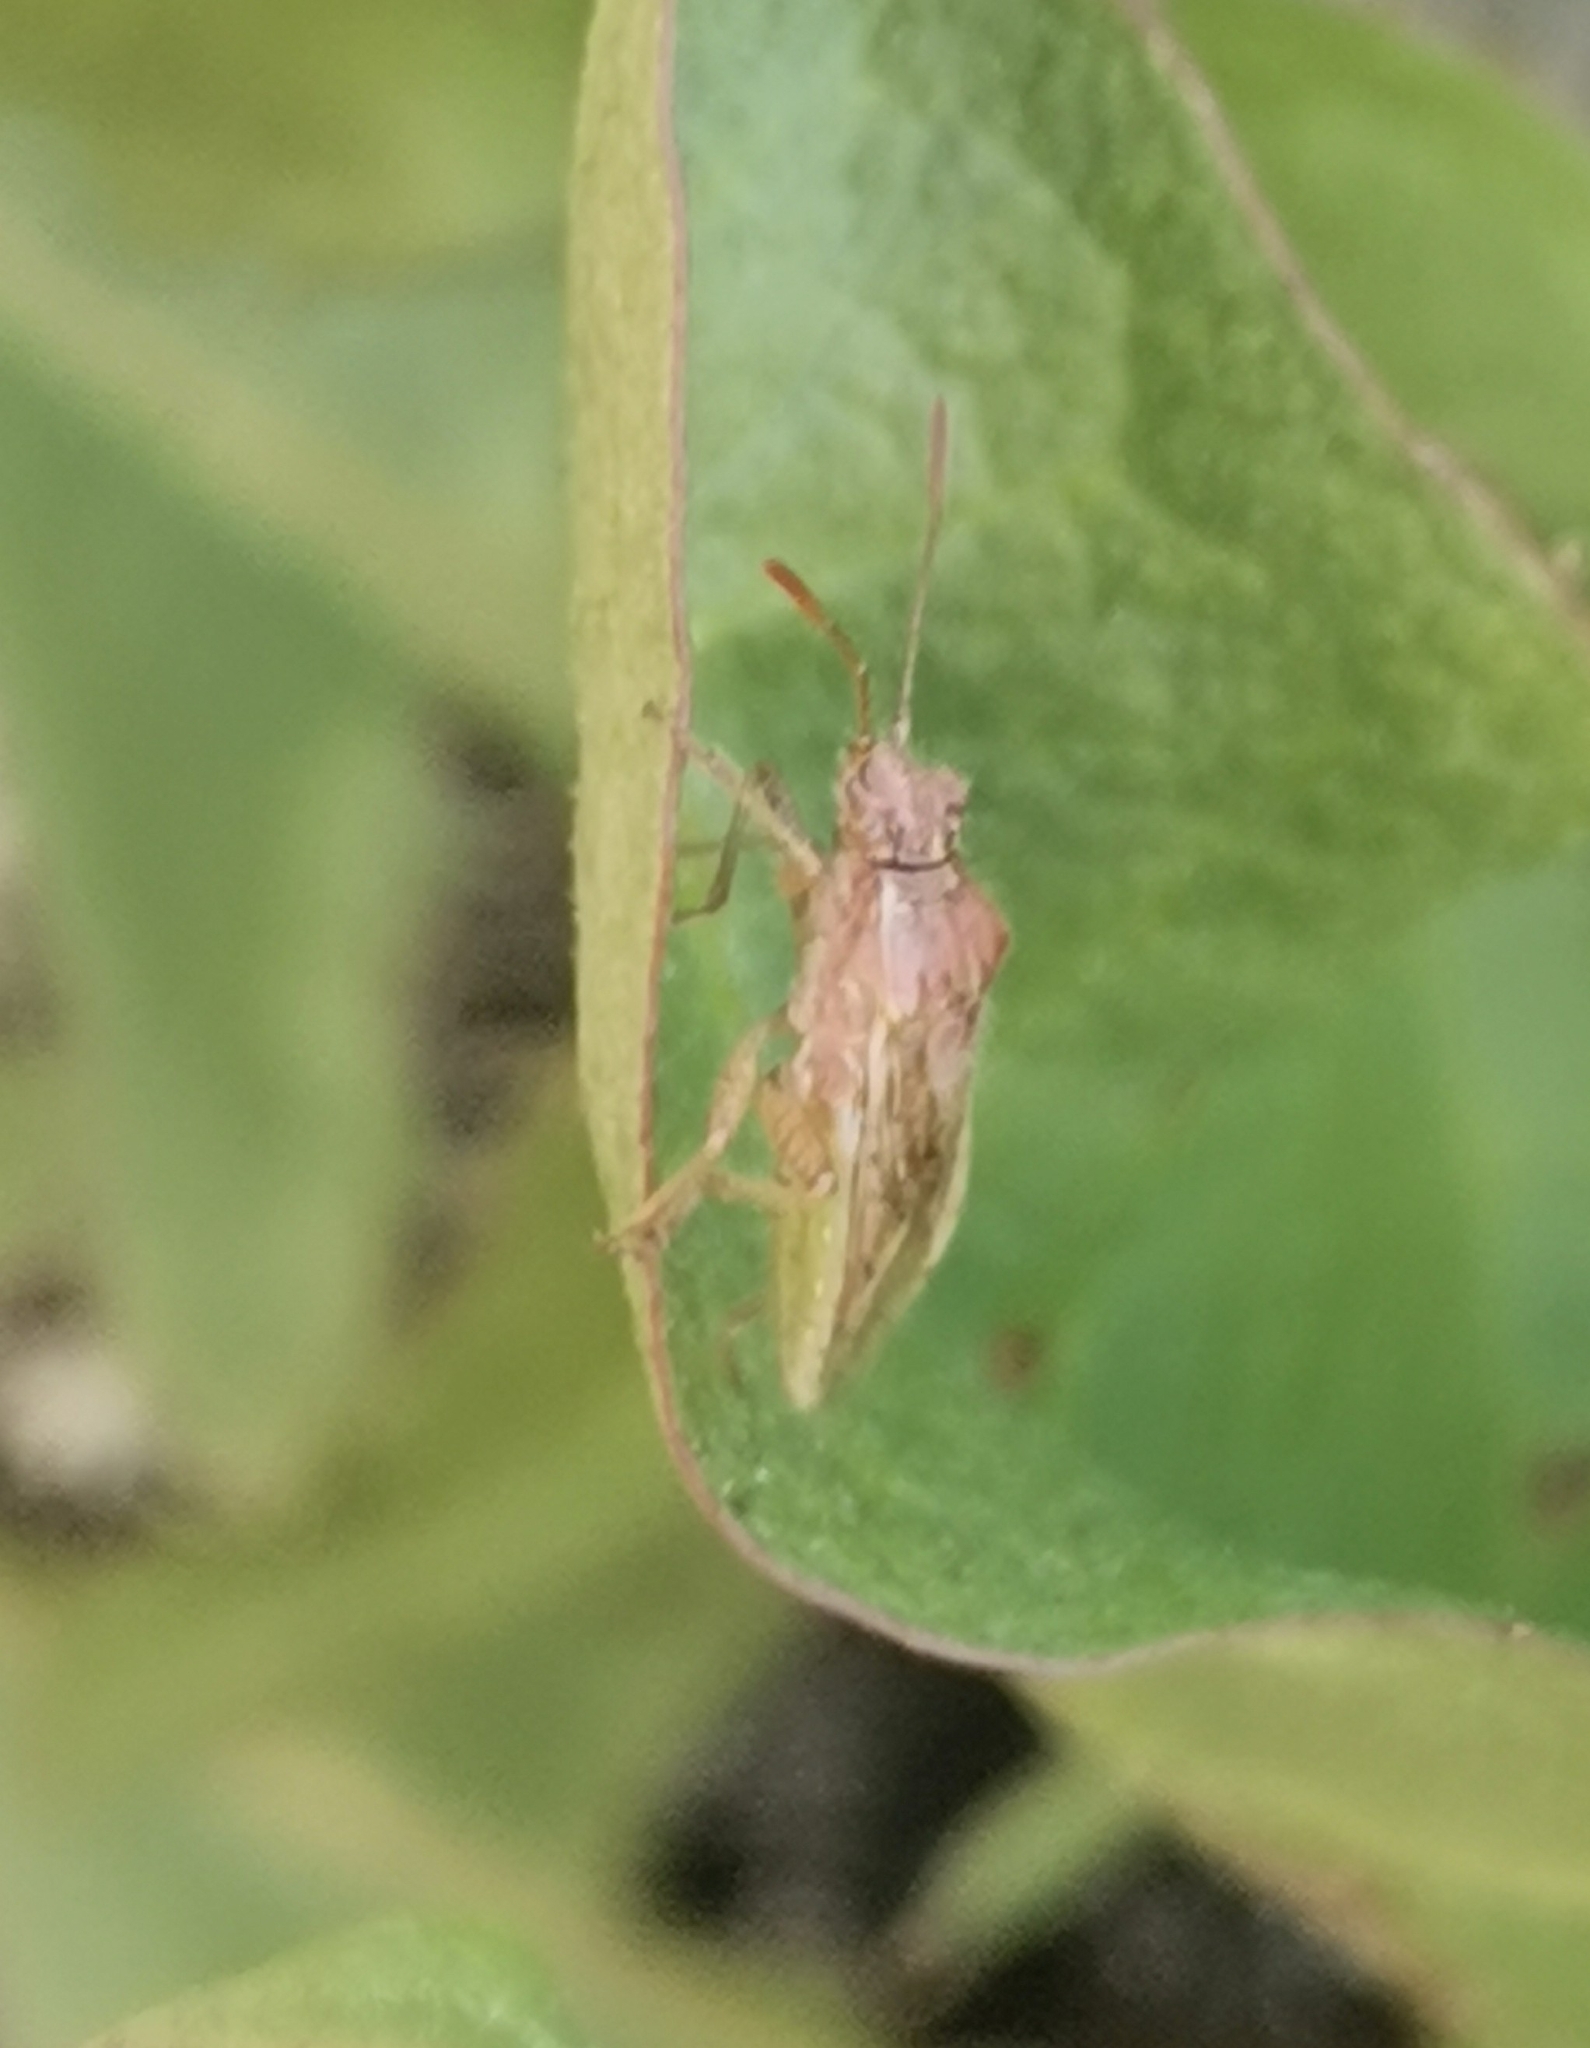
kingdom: Animalia
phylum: Arthropoda
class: Insecta
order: Hemiptera
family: Rhopalidae
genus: Rhopalus
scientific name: Rhopalus parumpunctatus
